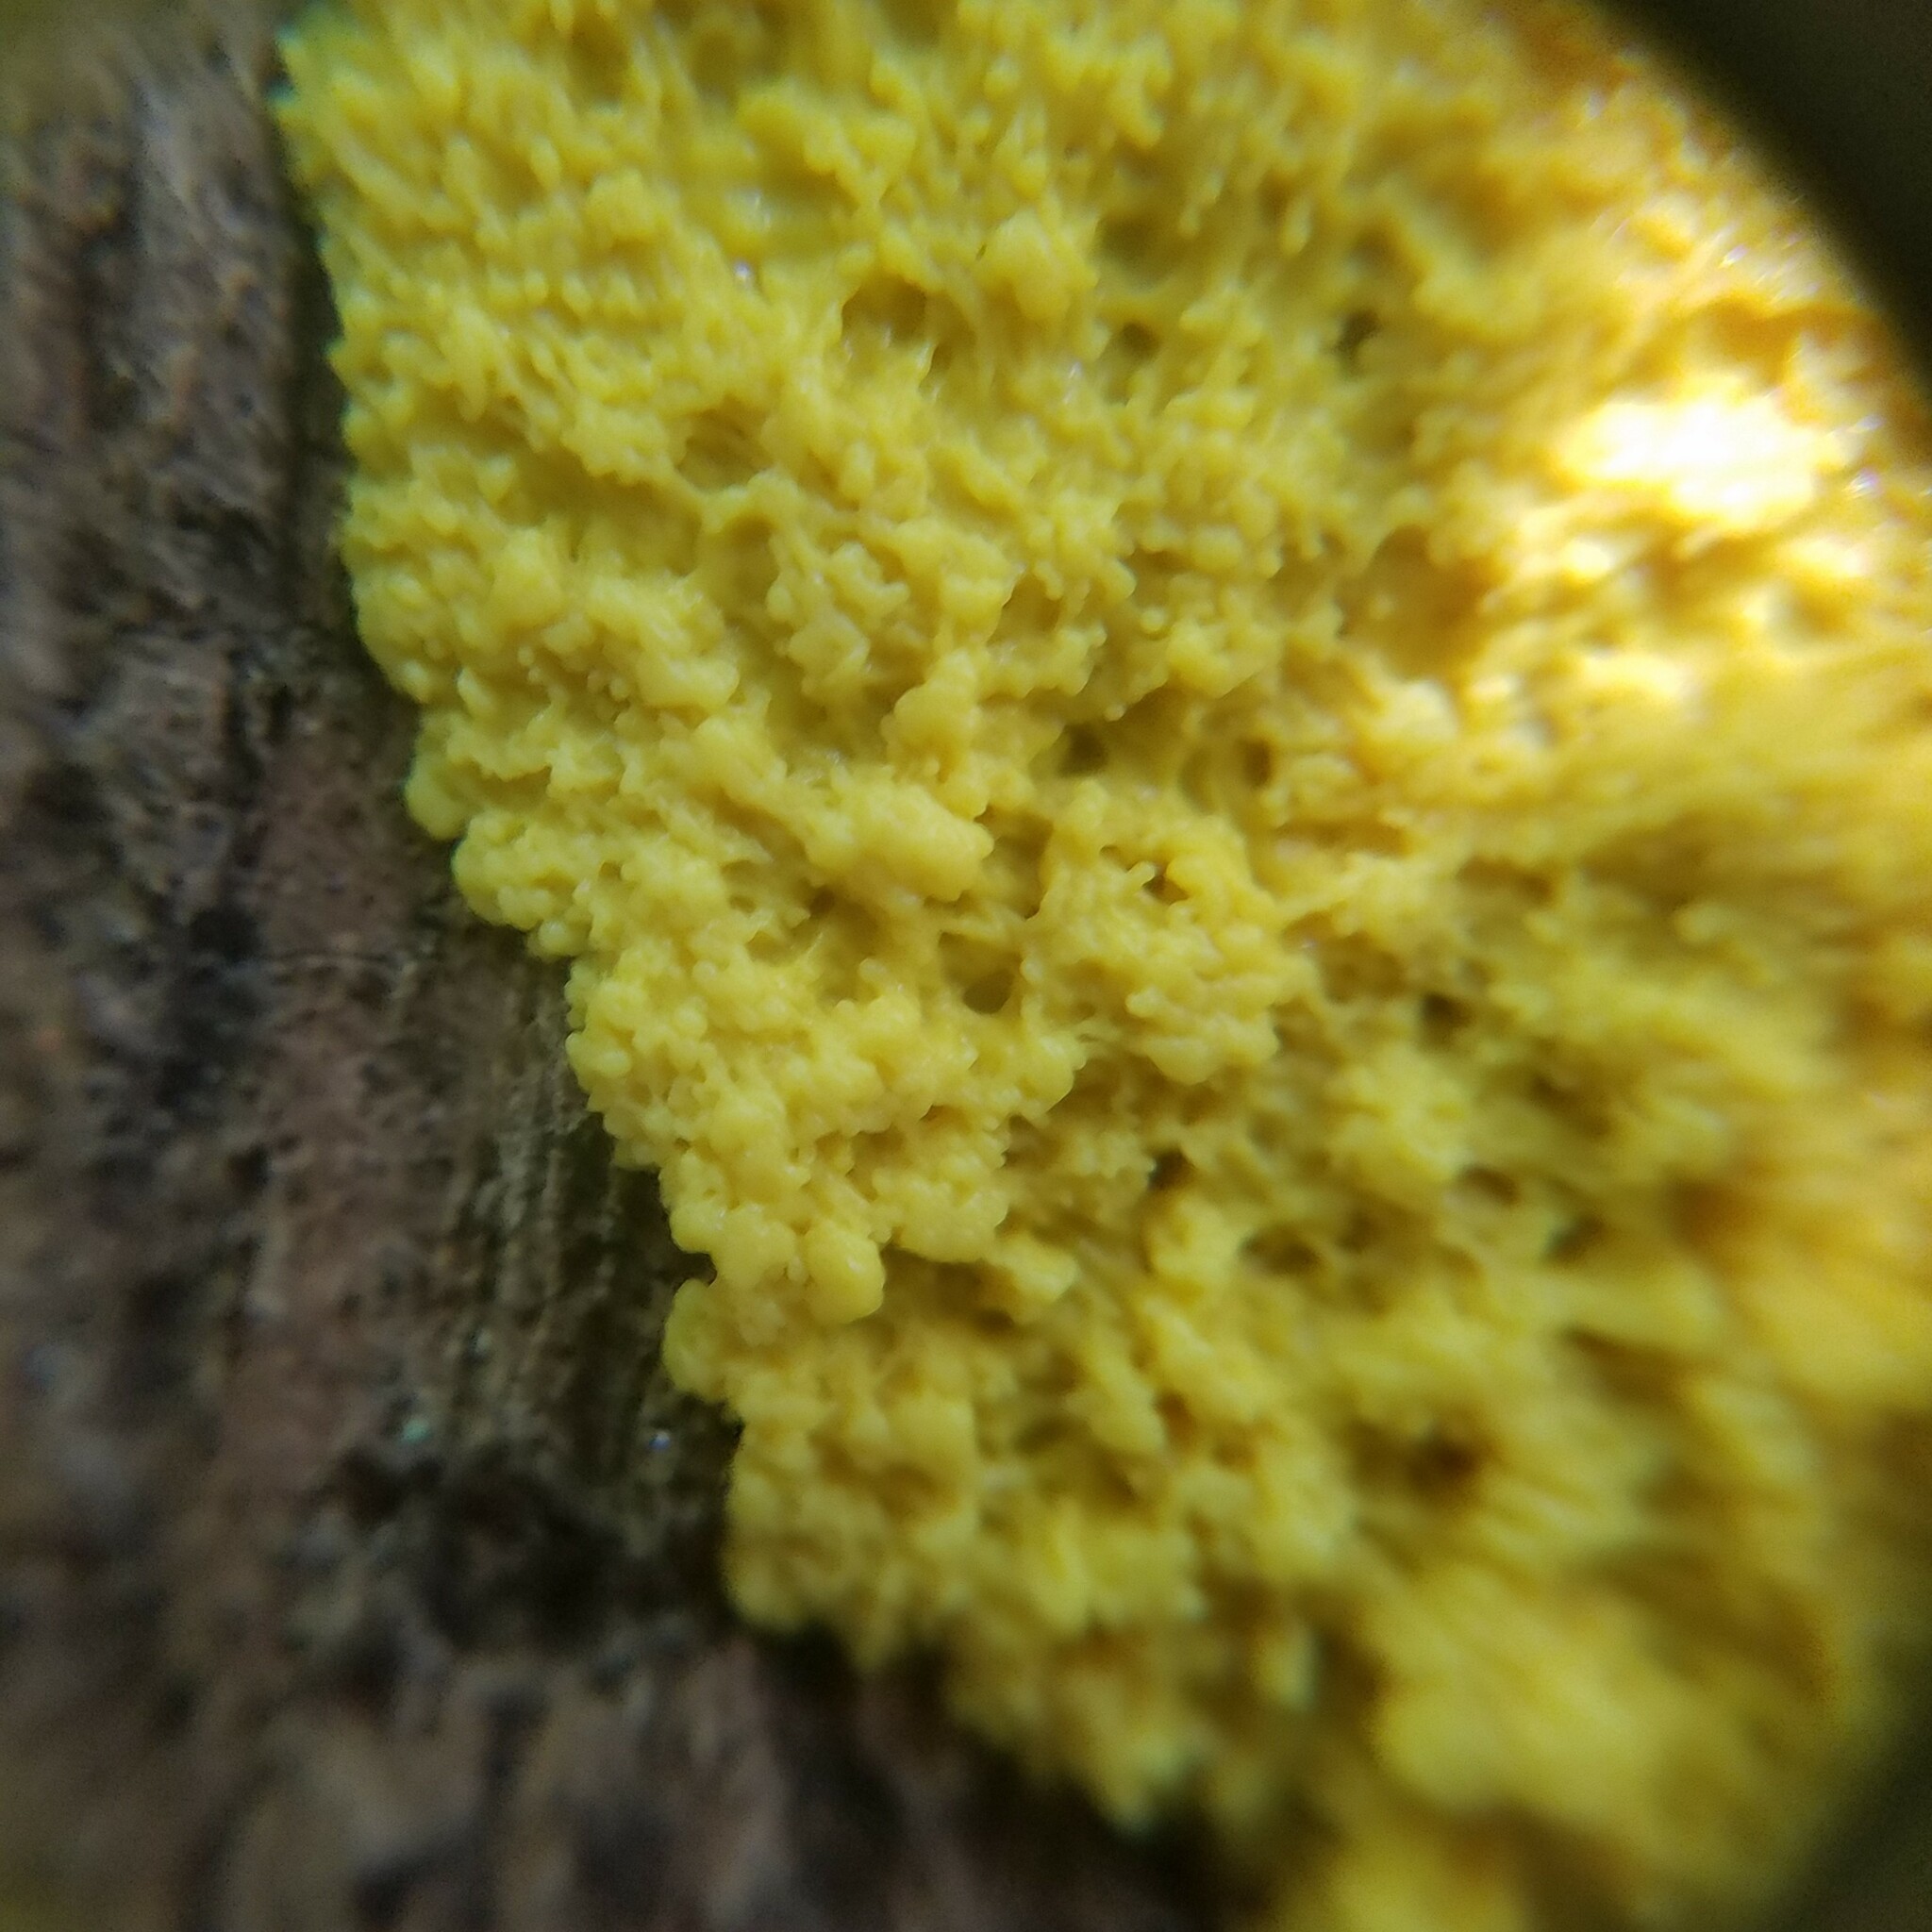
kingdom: Protozoa
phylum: Mycetozoa
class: Myxomycetes
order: Physarales
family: Physaraceae
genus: Fuligo
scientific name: Fuligo septica
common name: Dog vomit slime mold
